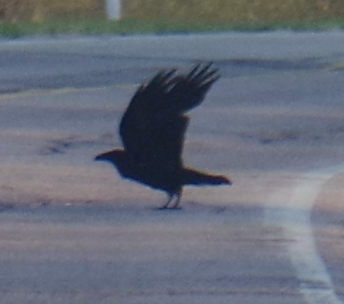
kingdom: Animalia
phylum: Chordata
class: Aves
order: Passeriformes
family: Corvidae
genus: Corvus
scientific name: Corvus corax
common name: Common raven
